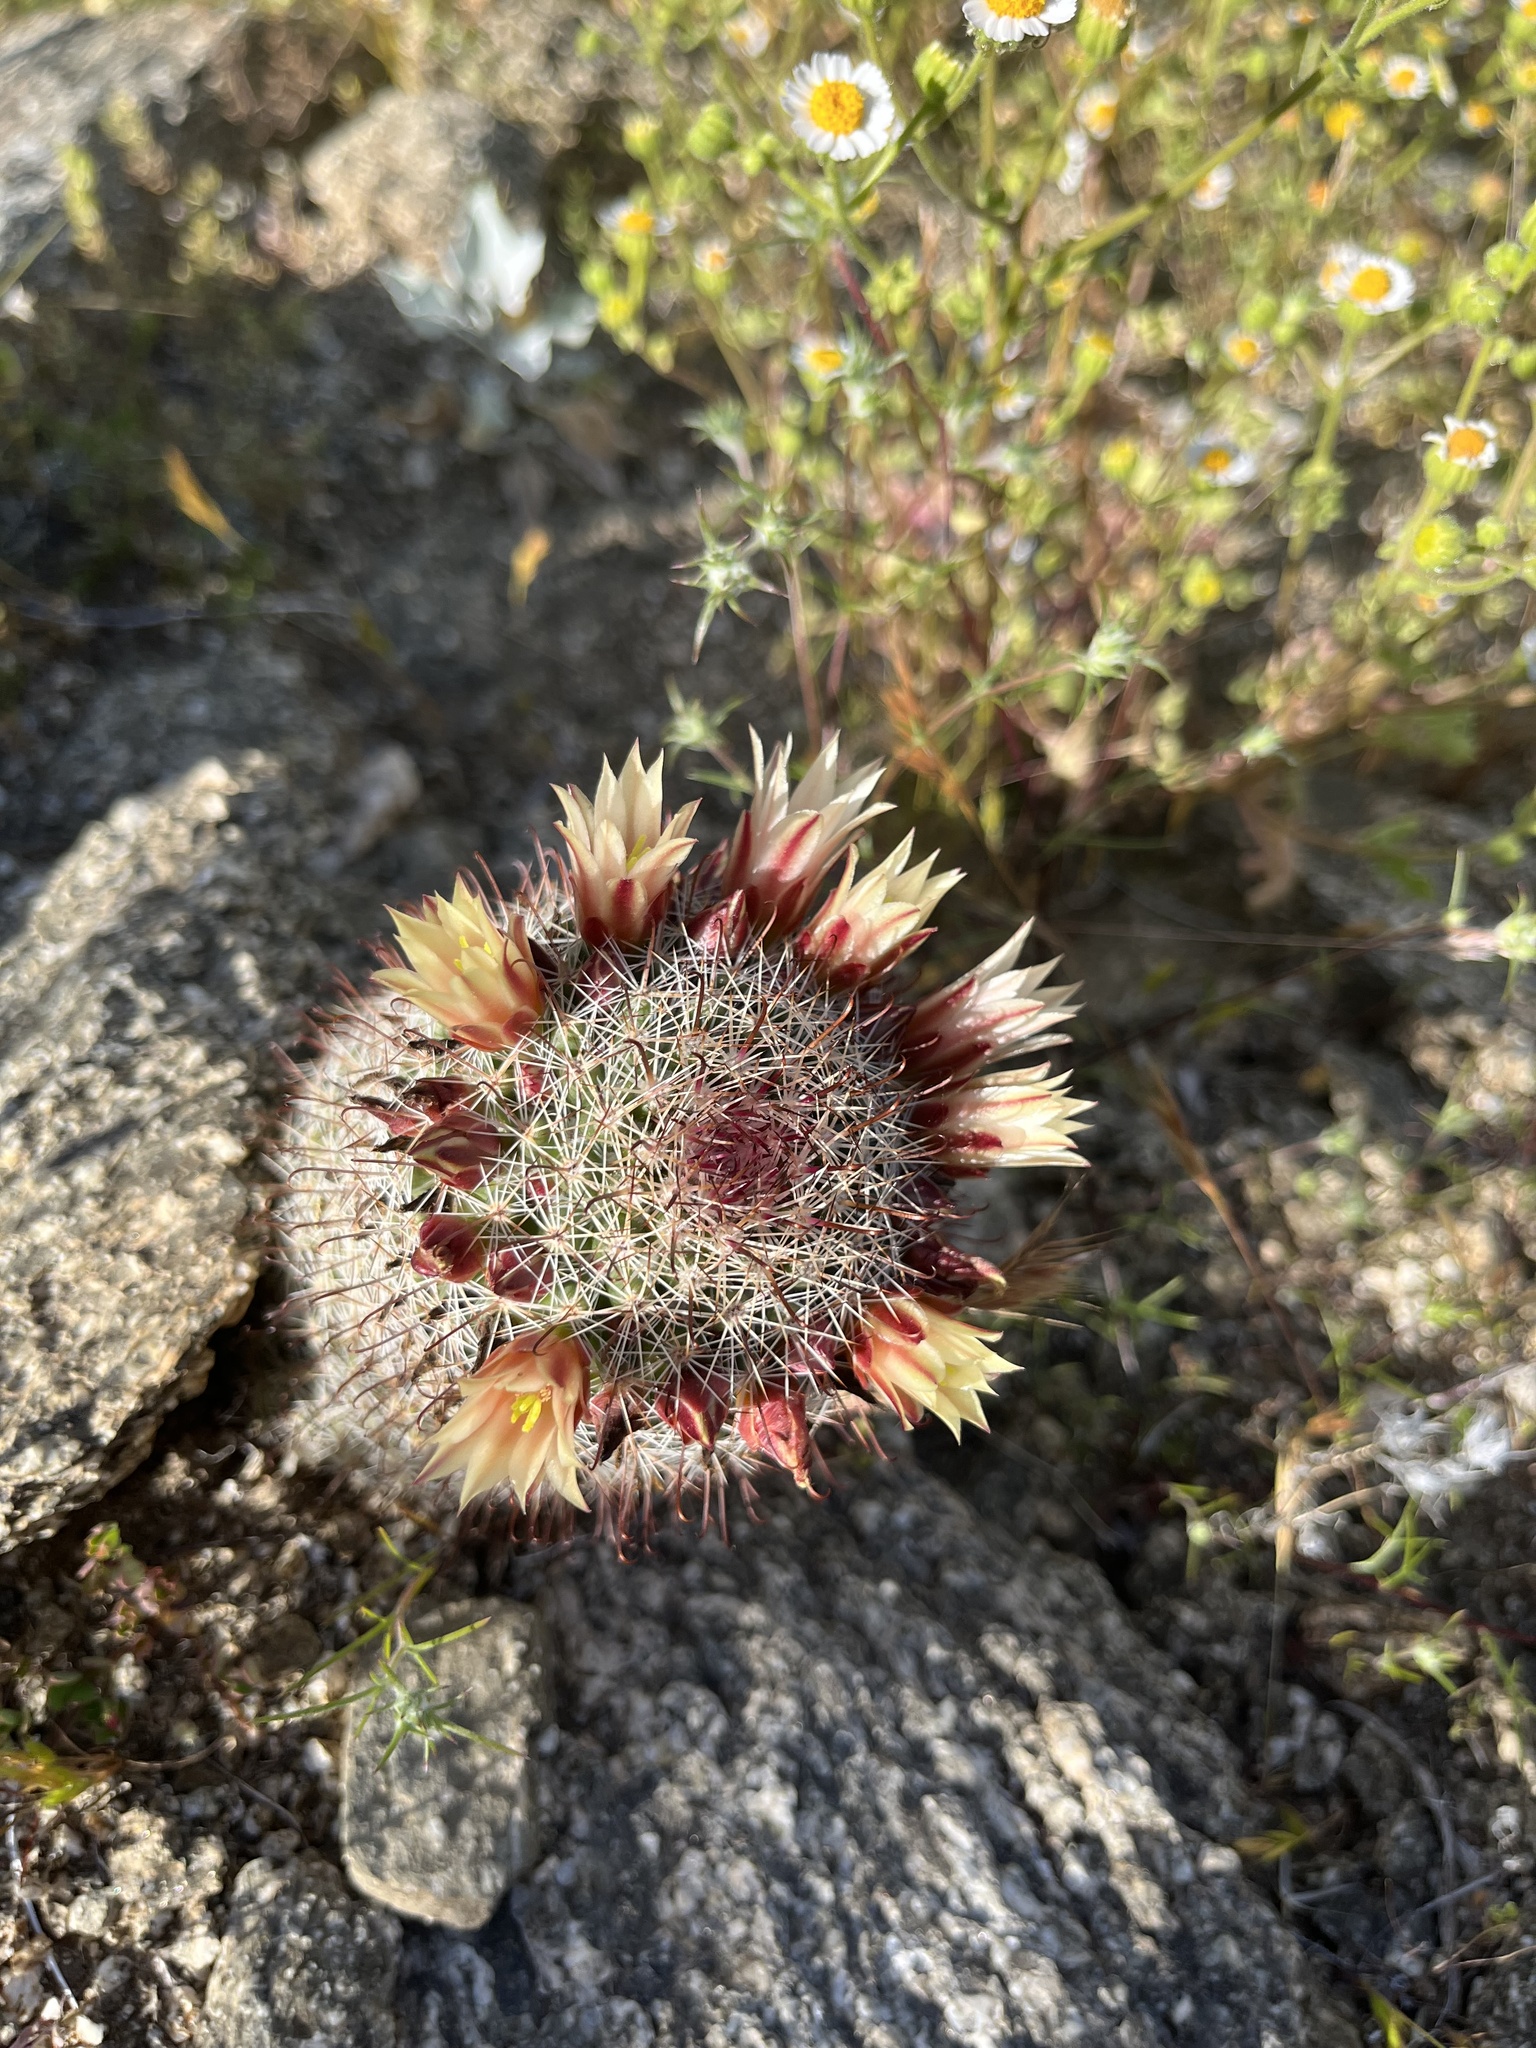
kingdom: Plantae
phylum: Tracheophyta
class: Magnoliopsida
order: Caryophyllales
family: Cactaceae
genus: Cochemiea
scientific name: Cochemiea dioica
